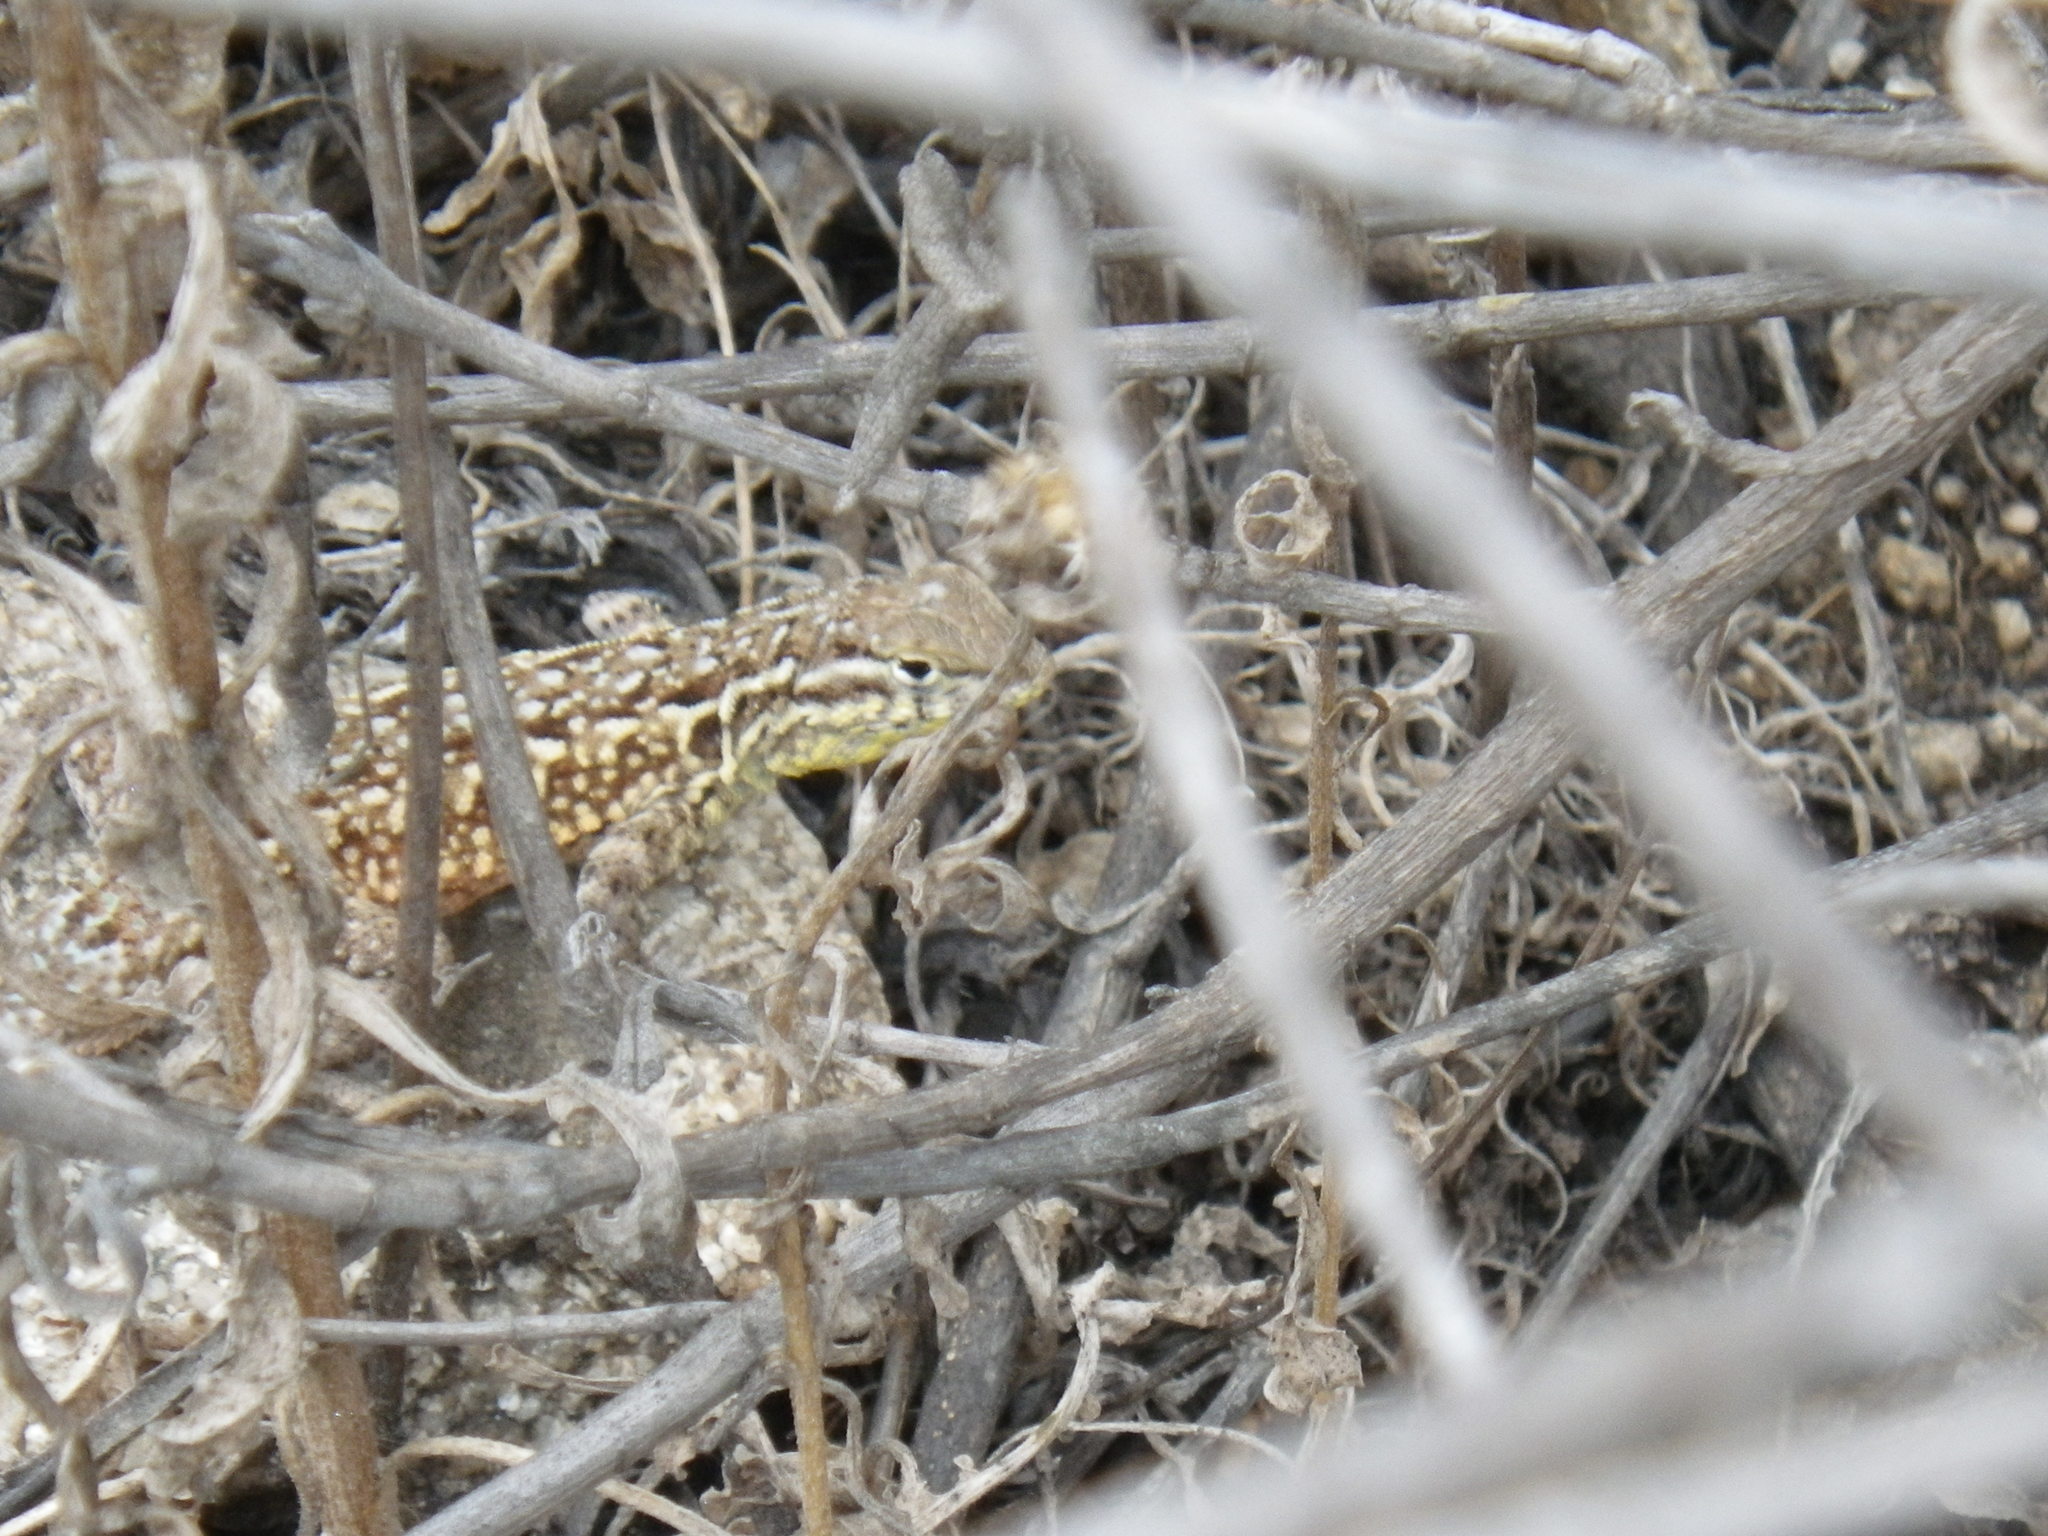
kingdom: Animalia
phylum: Chordata
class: Squamata
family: Phrynosomatidae
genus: Uta
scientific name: Uta stansburiana
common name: Side-blotched lizard
